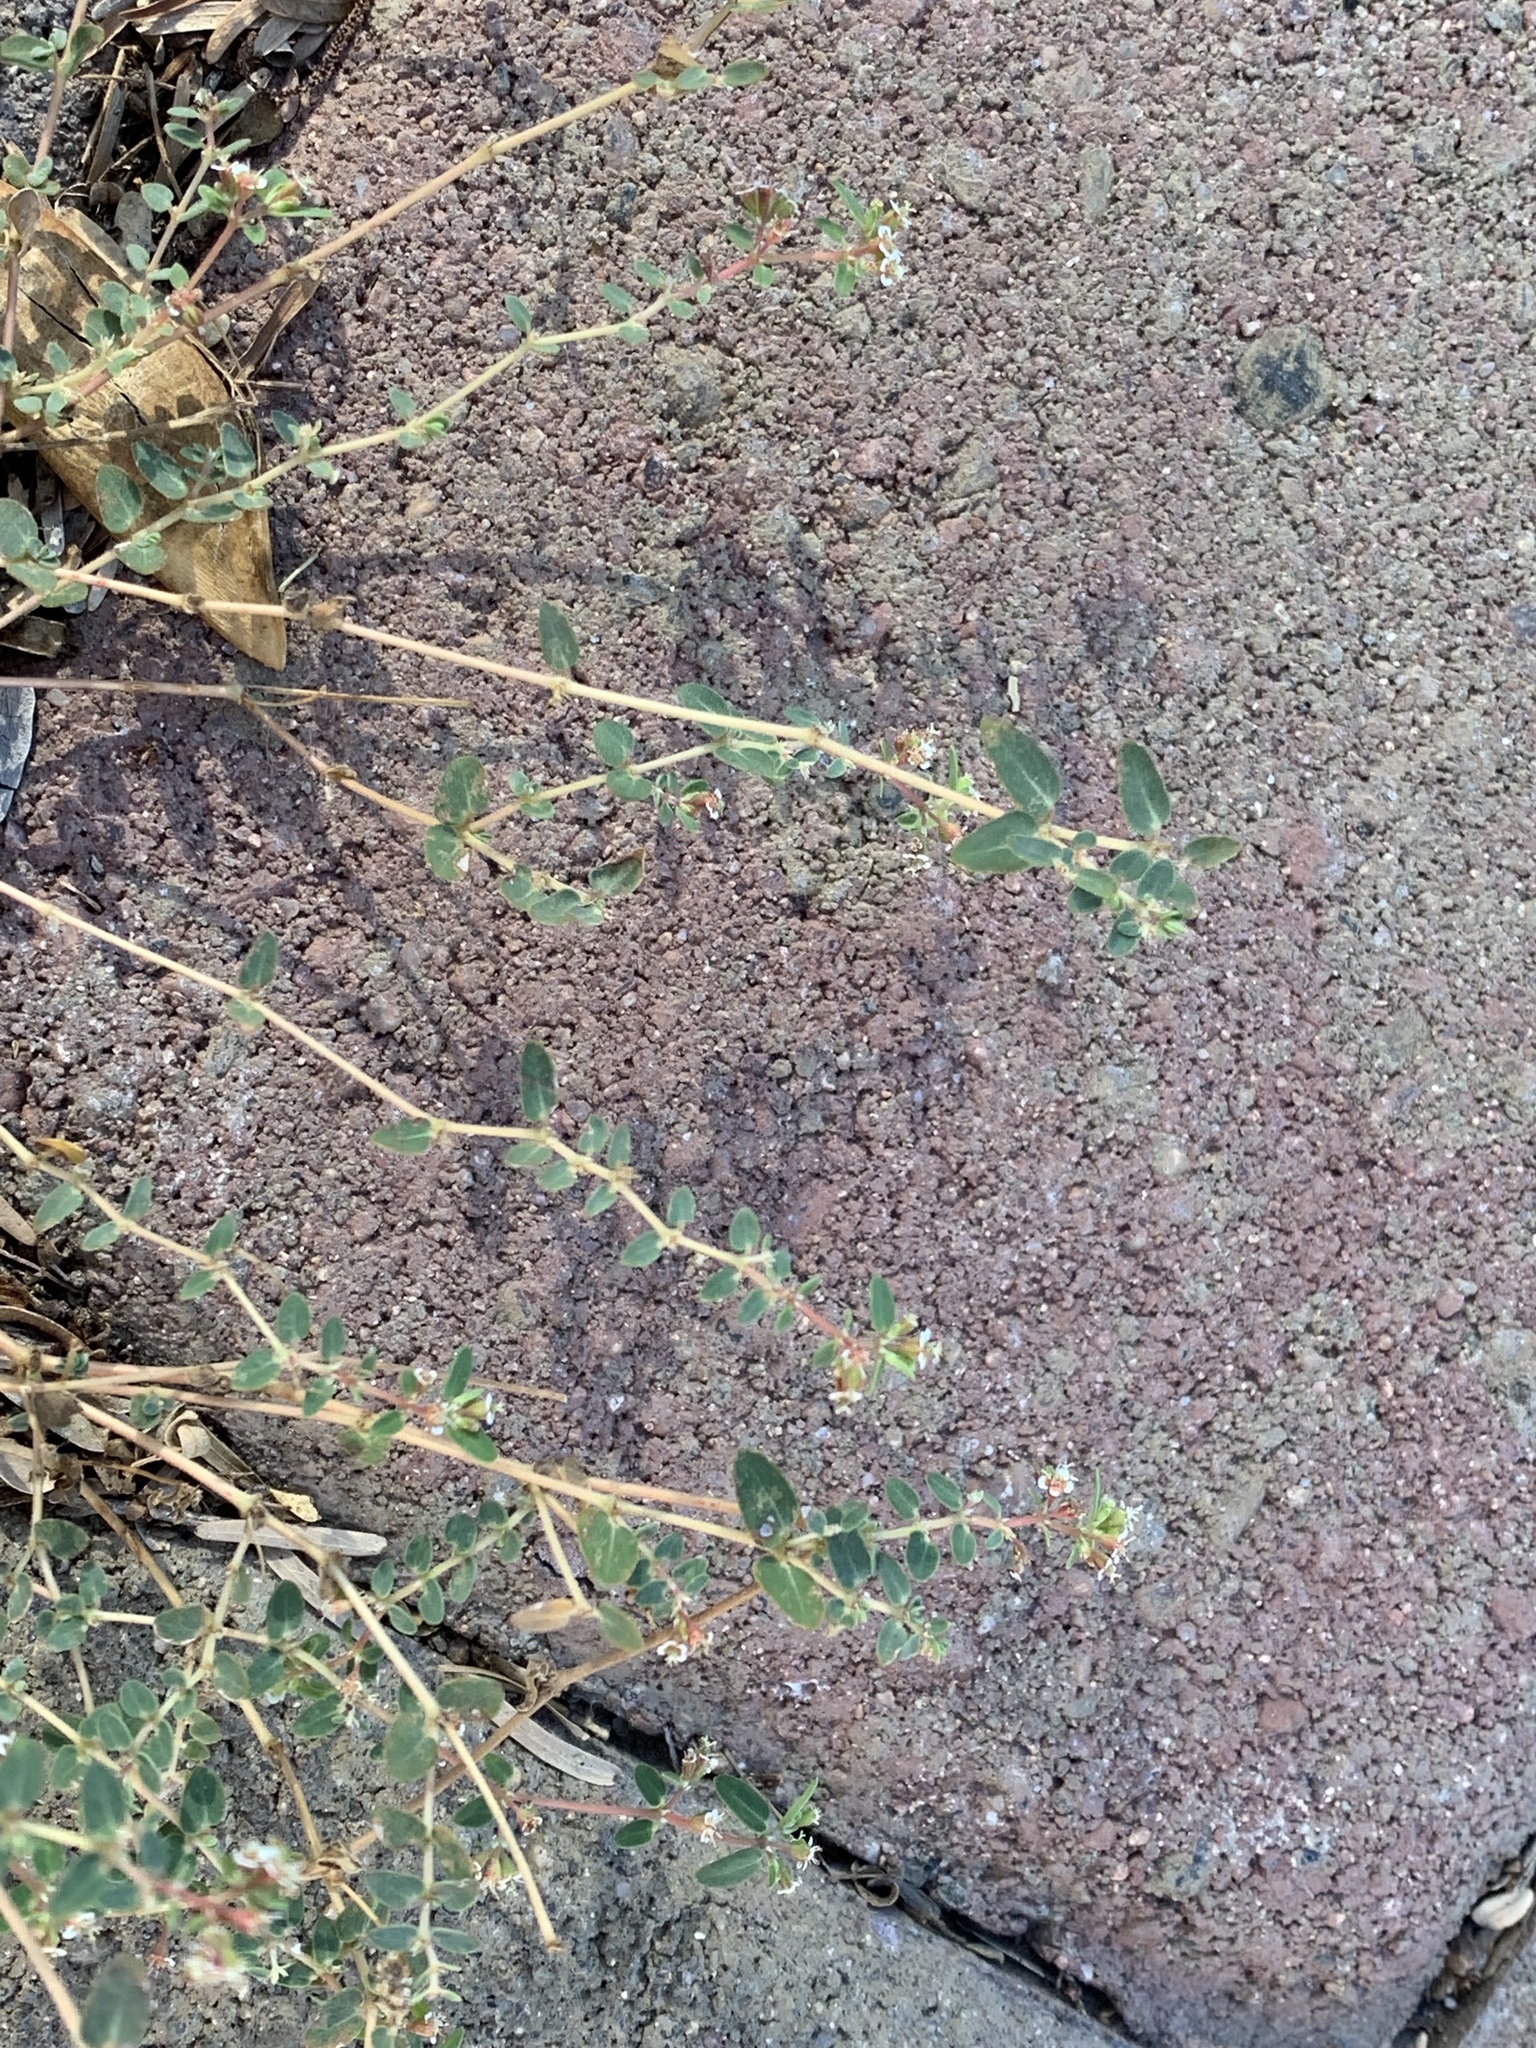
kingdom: Plantae
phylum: Tracheophyta
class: Magnoliopsida
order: Malpighiales
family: Euphorbiaceae
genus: Euphorbia
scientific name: Euphorbia capitellata
